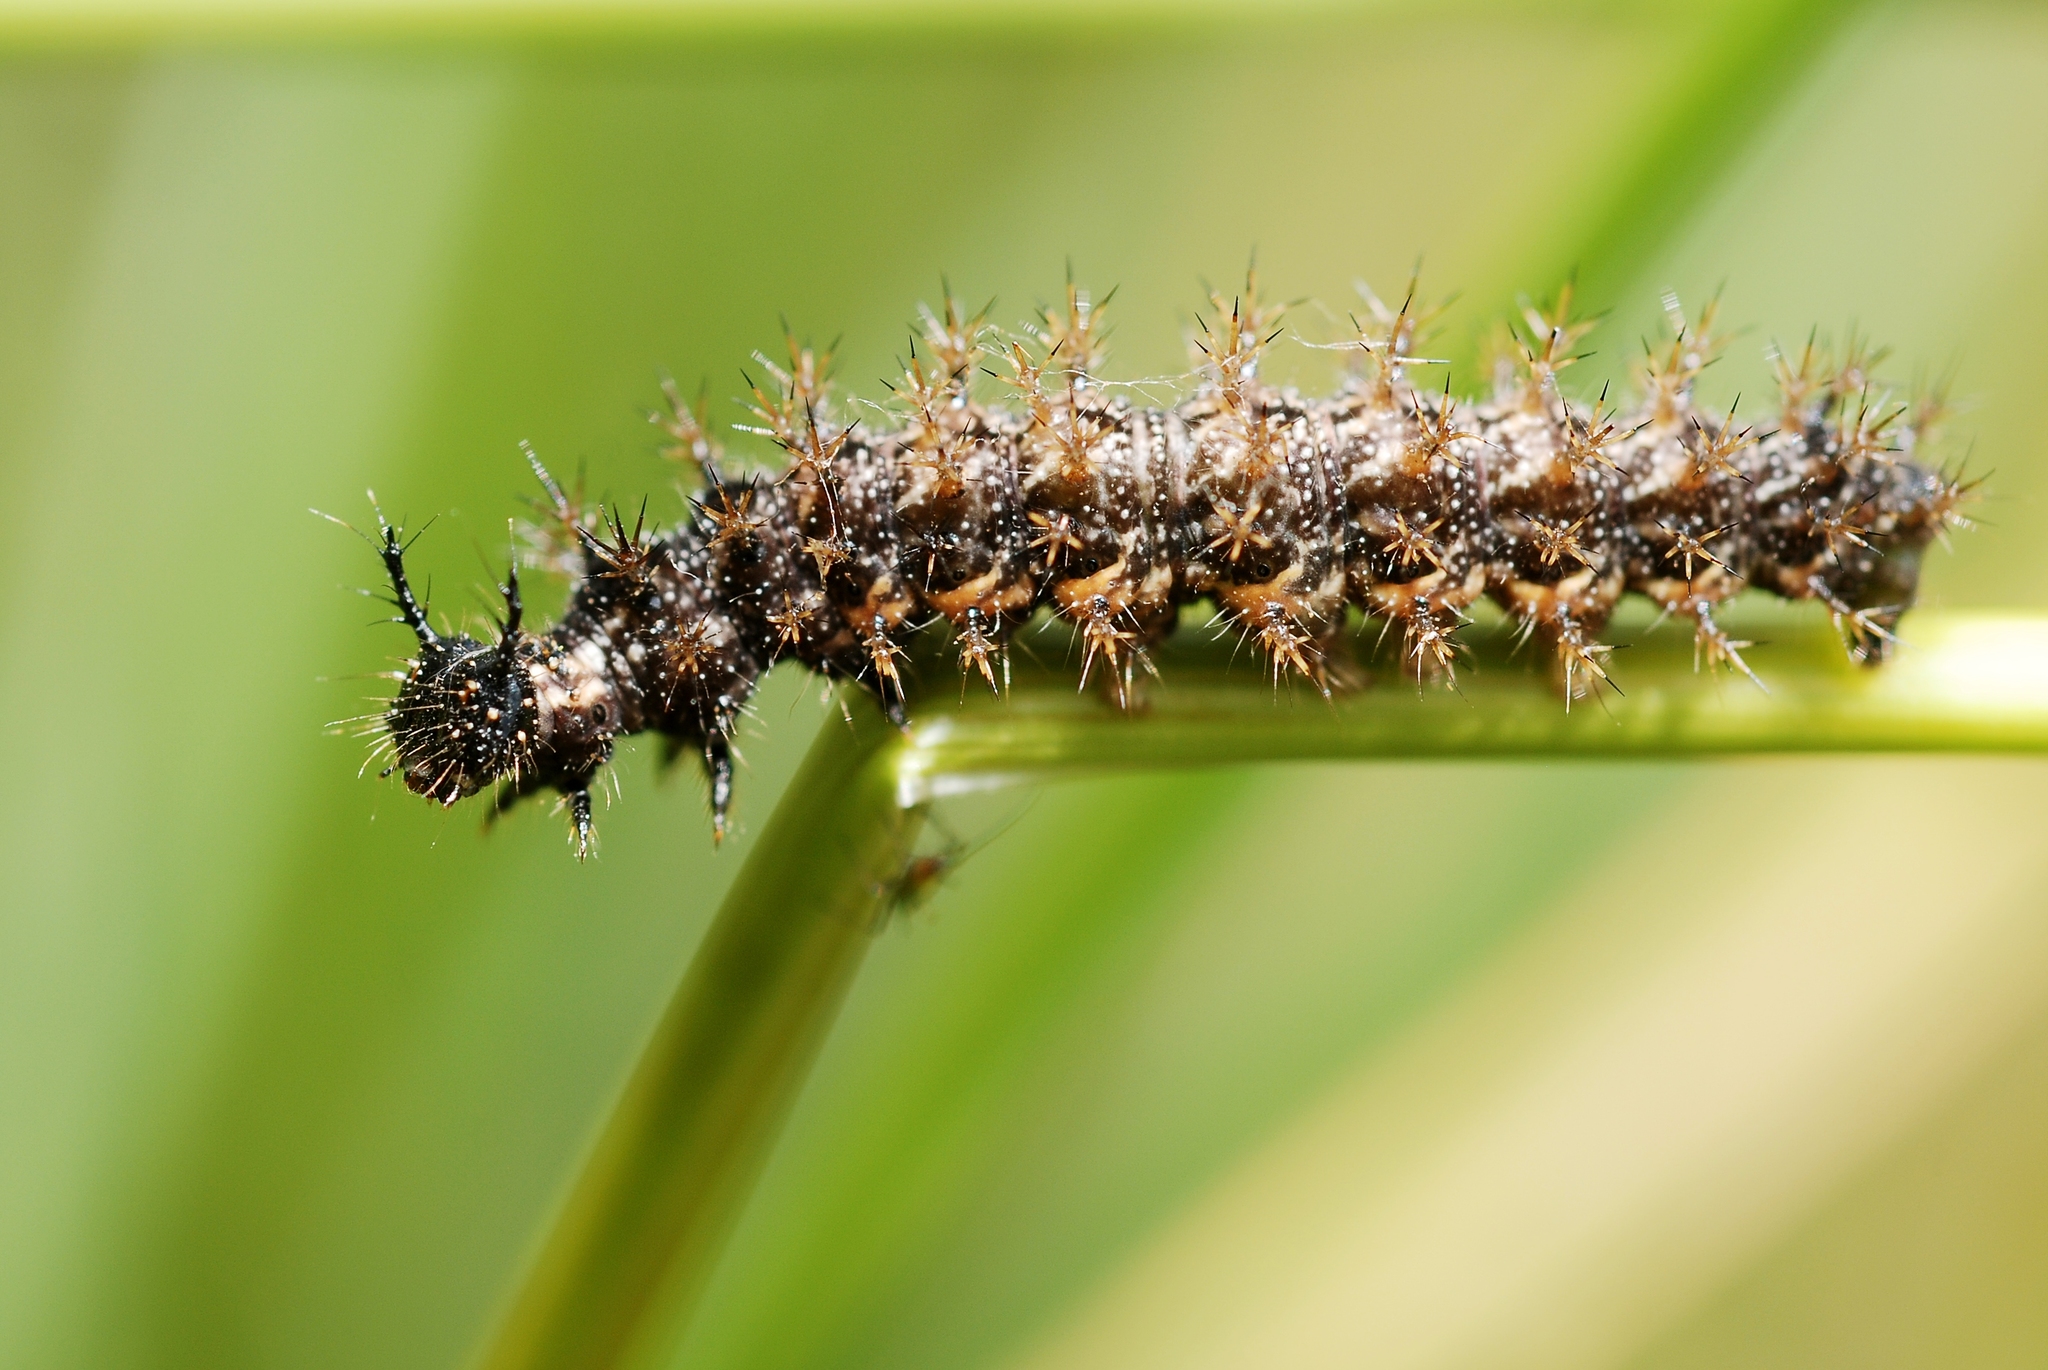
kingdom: Animalia
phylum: Arthropoda
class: Insecta
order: Lepidoptera
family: Nymphalidae
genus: Araschnia
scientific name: Araschnia levana
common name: Map butterfly
